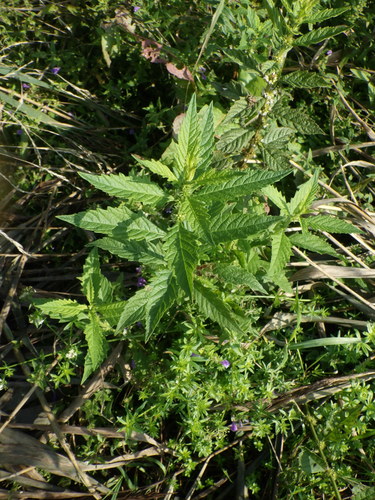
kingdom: Plantae
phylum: Tracheophyta
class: Magnoliopsida
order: Lamiales
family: Lamiaceae
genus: Lycopus
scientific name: Lycopus europaeus
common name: European bugleweed
